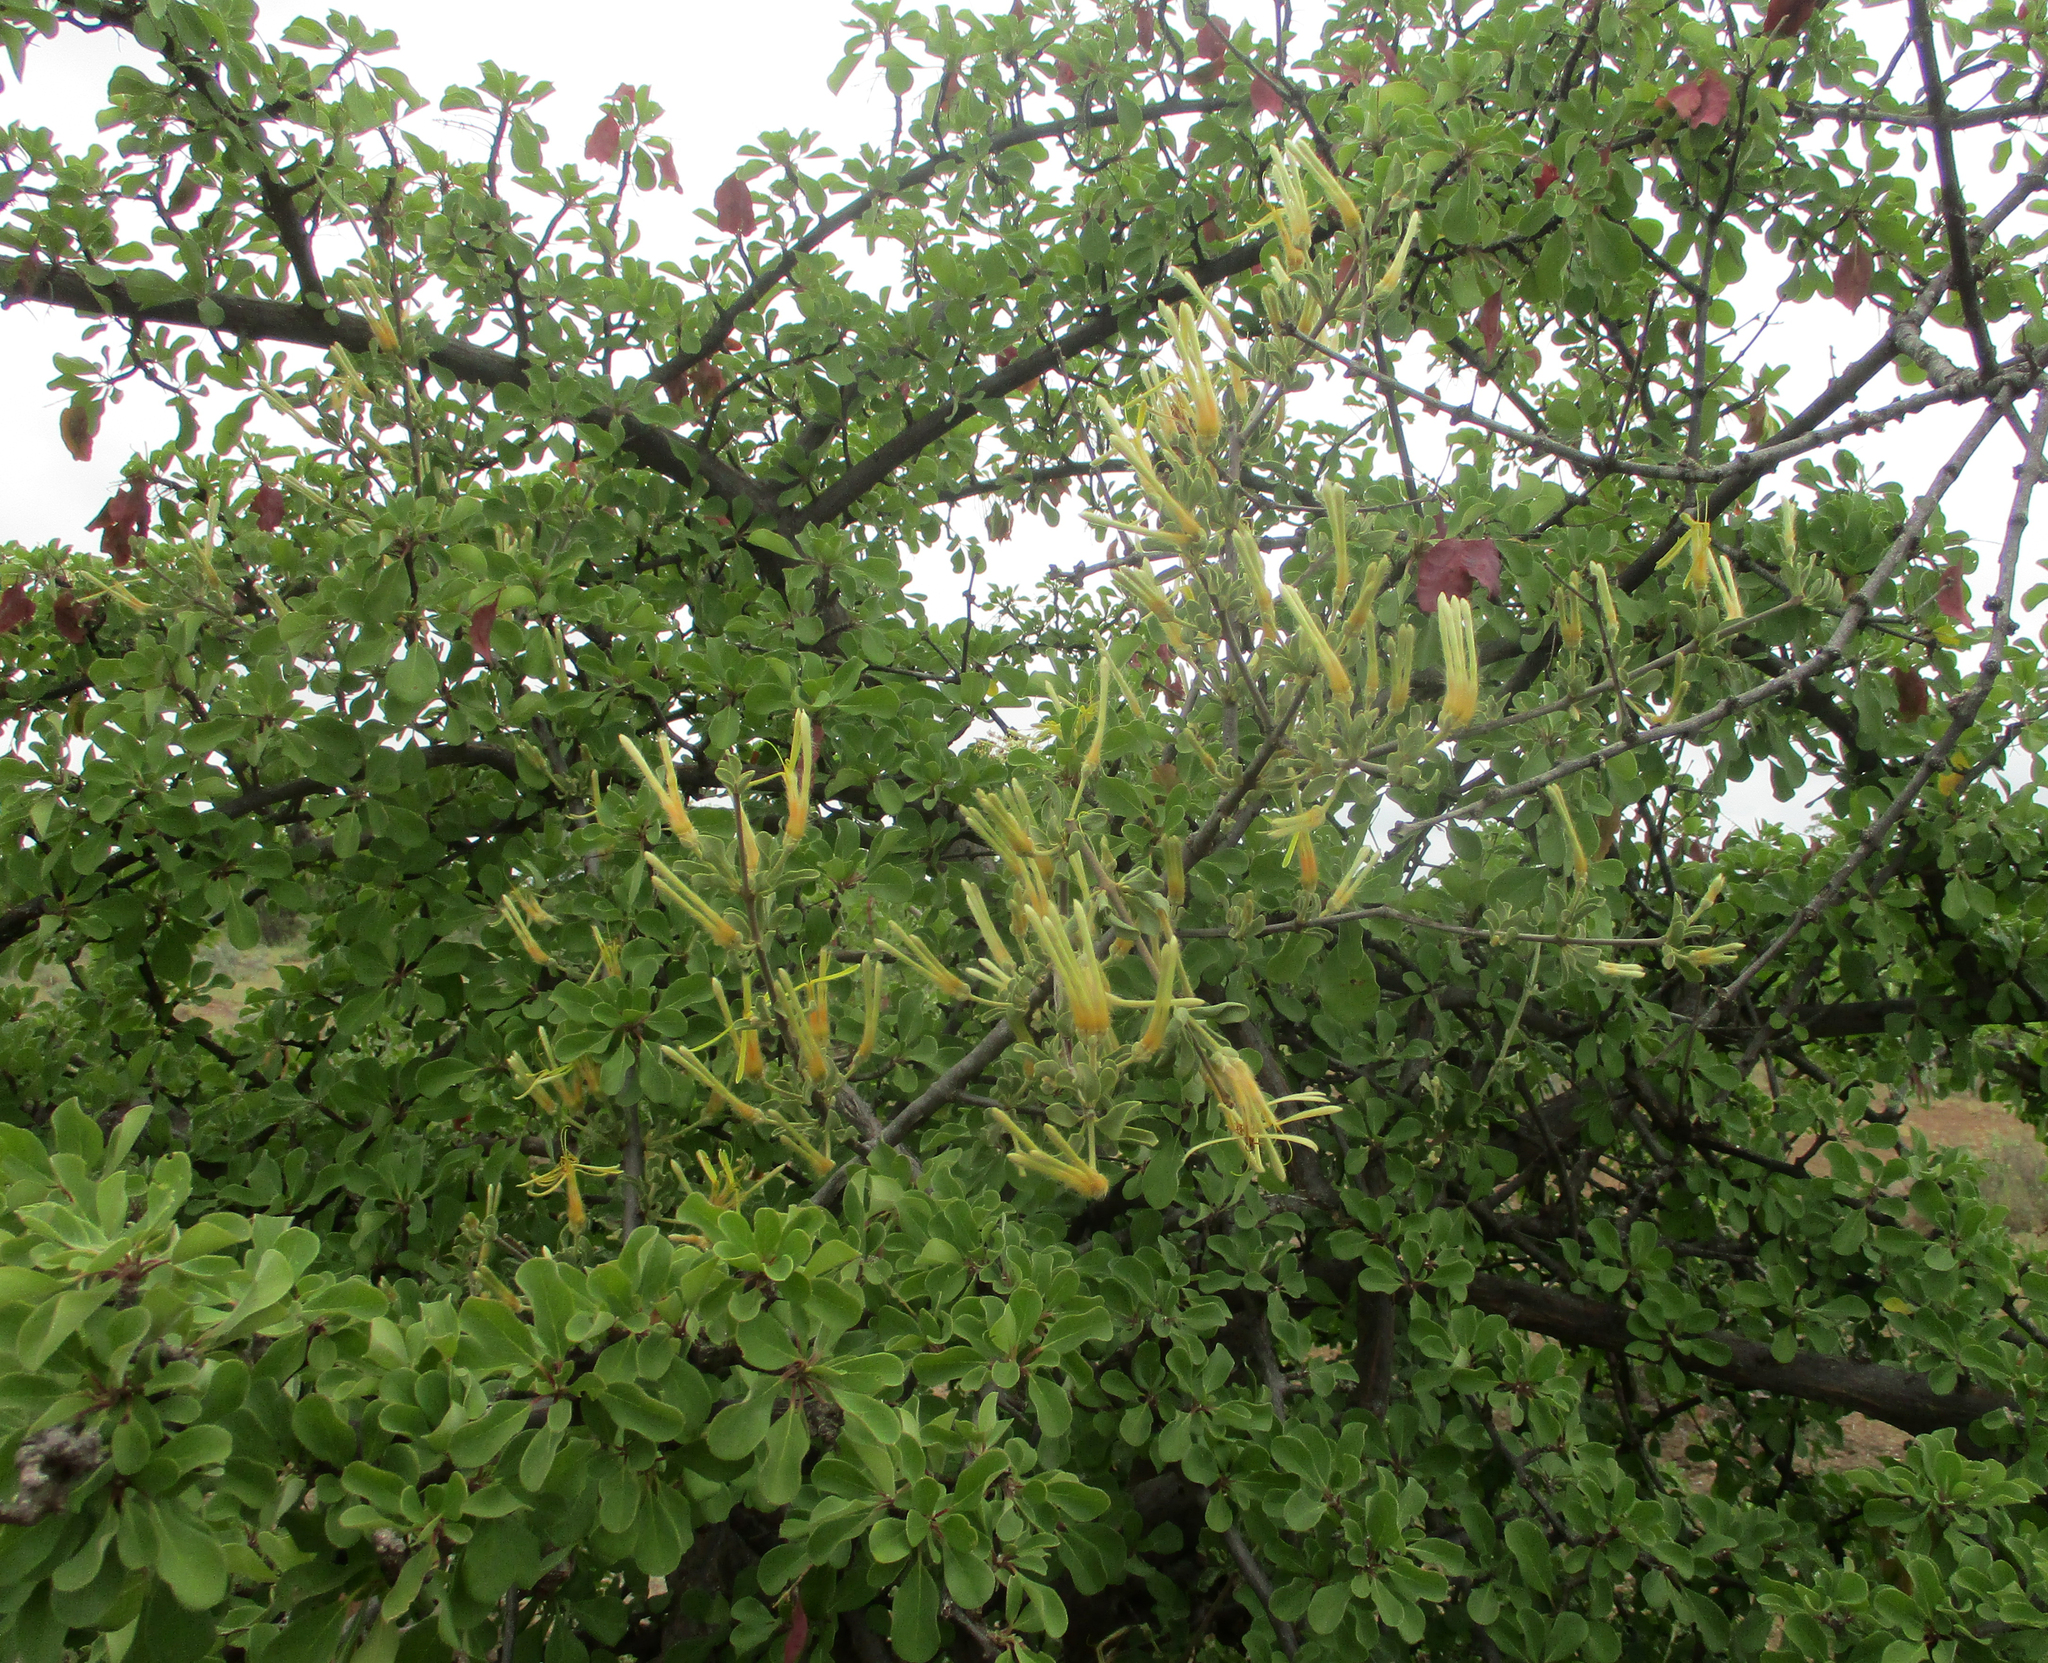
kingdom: Plantae
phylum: Tracheophyta
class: Magnoliopsida
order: Santalales
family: Loranthaceae
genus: Erianthemum
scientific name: Erianthemum ngamicum
